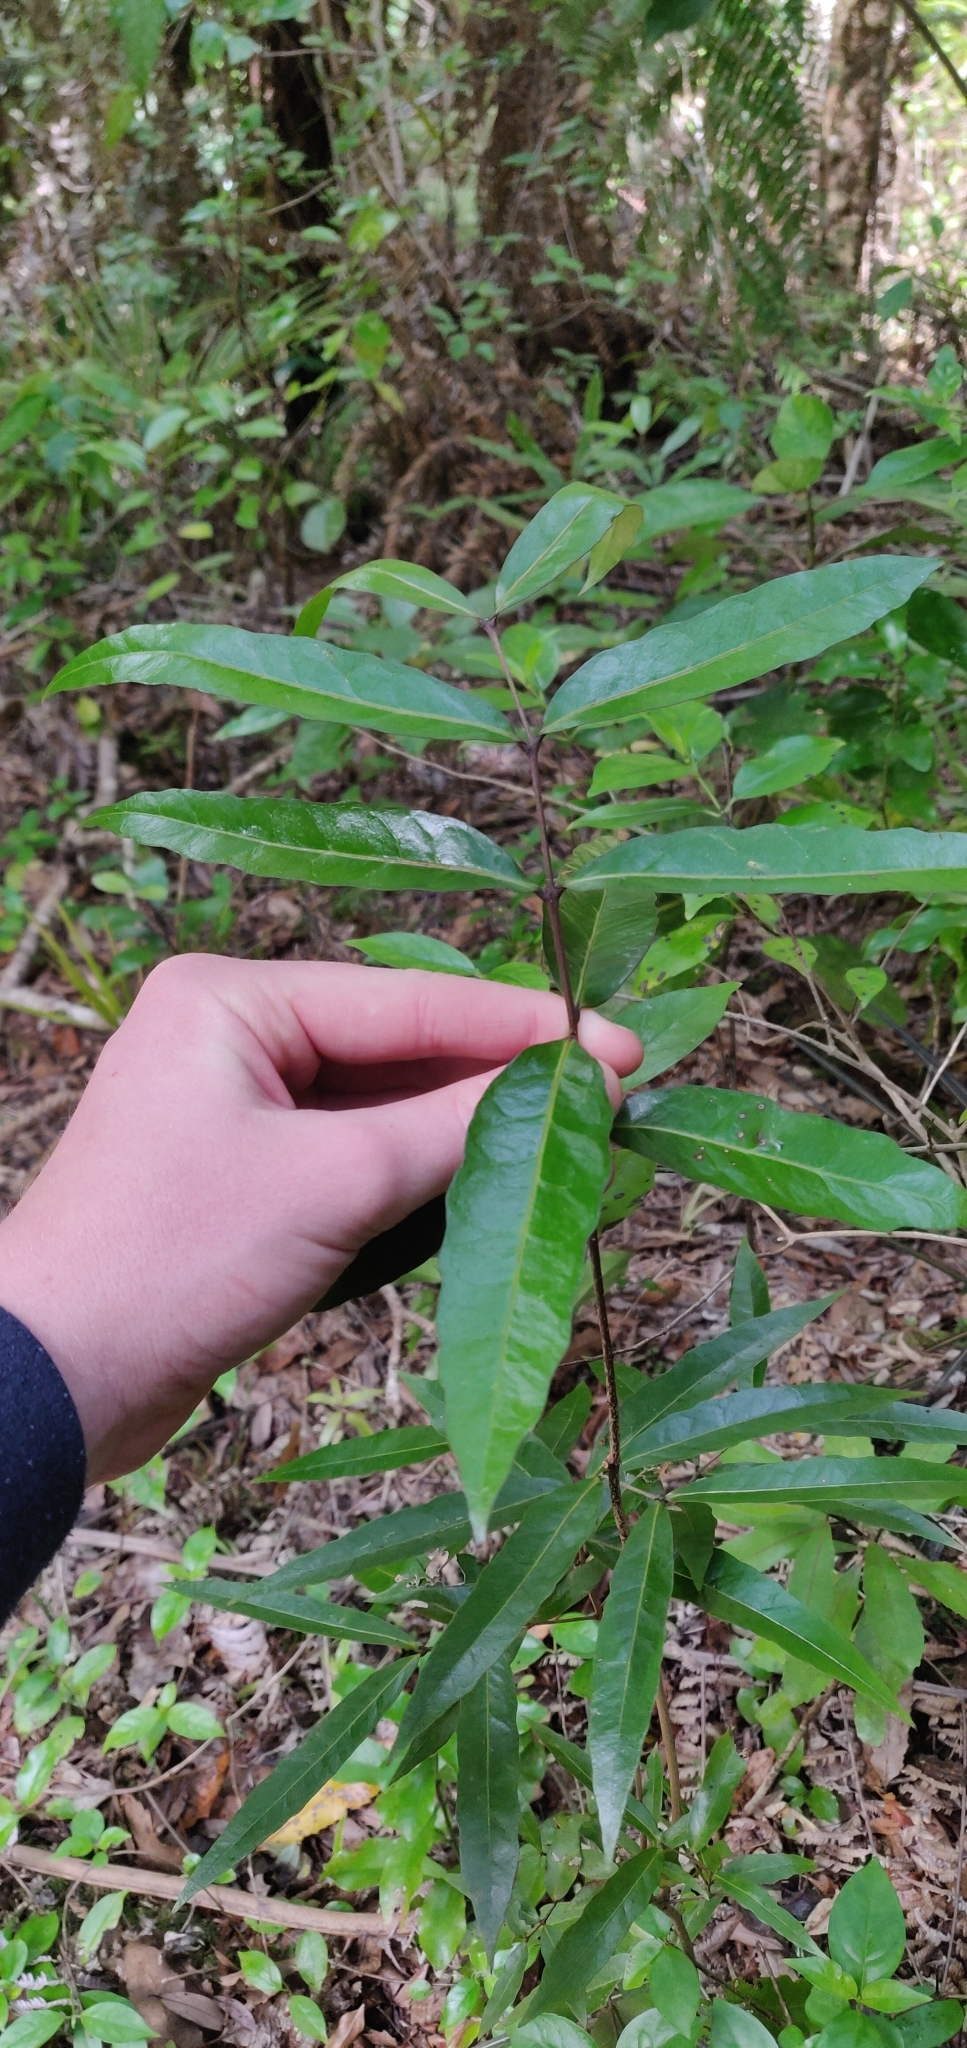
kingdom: Plantae
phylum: Tracheophyta
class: Magnoliopsida
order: Santalales
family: Nanodeaceae
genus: Mida
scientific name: Mida salicifolia
